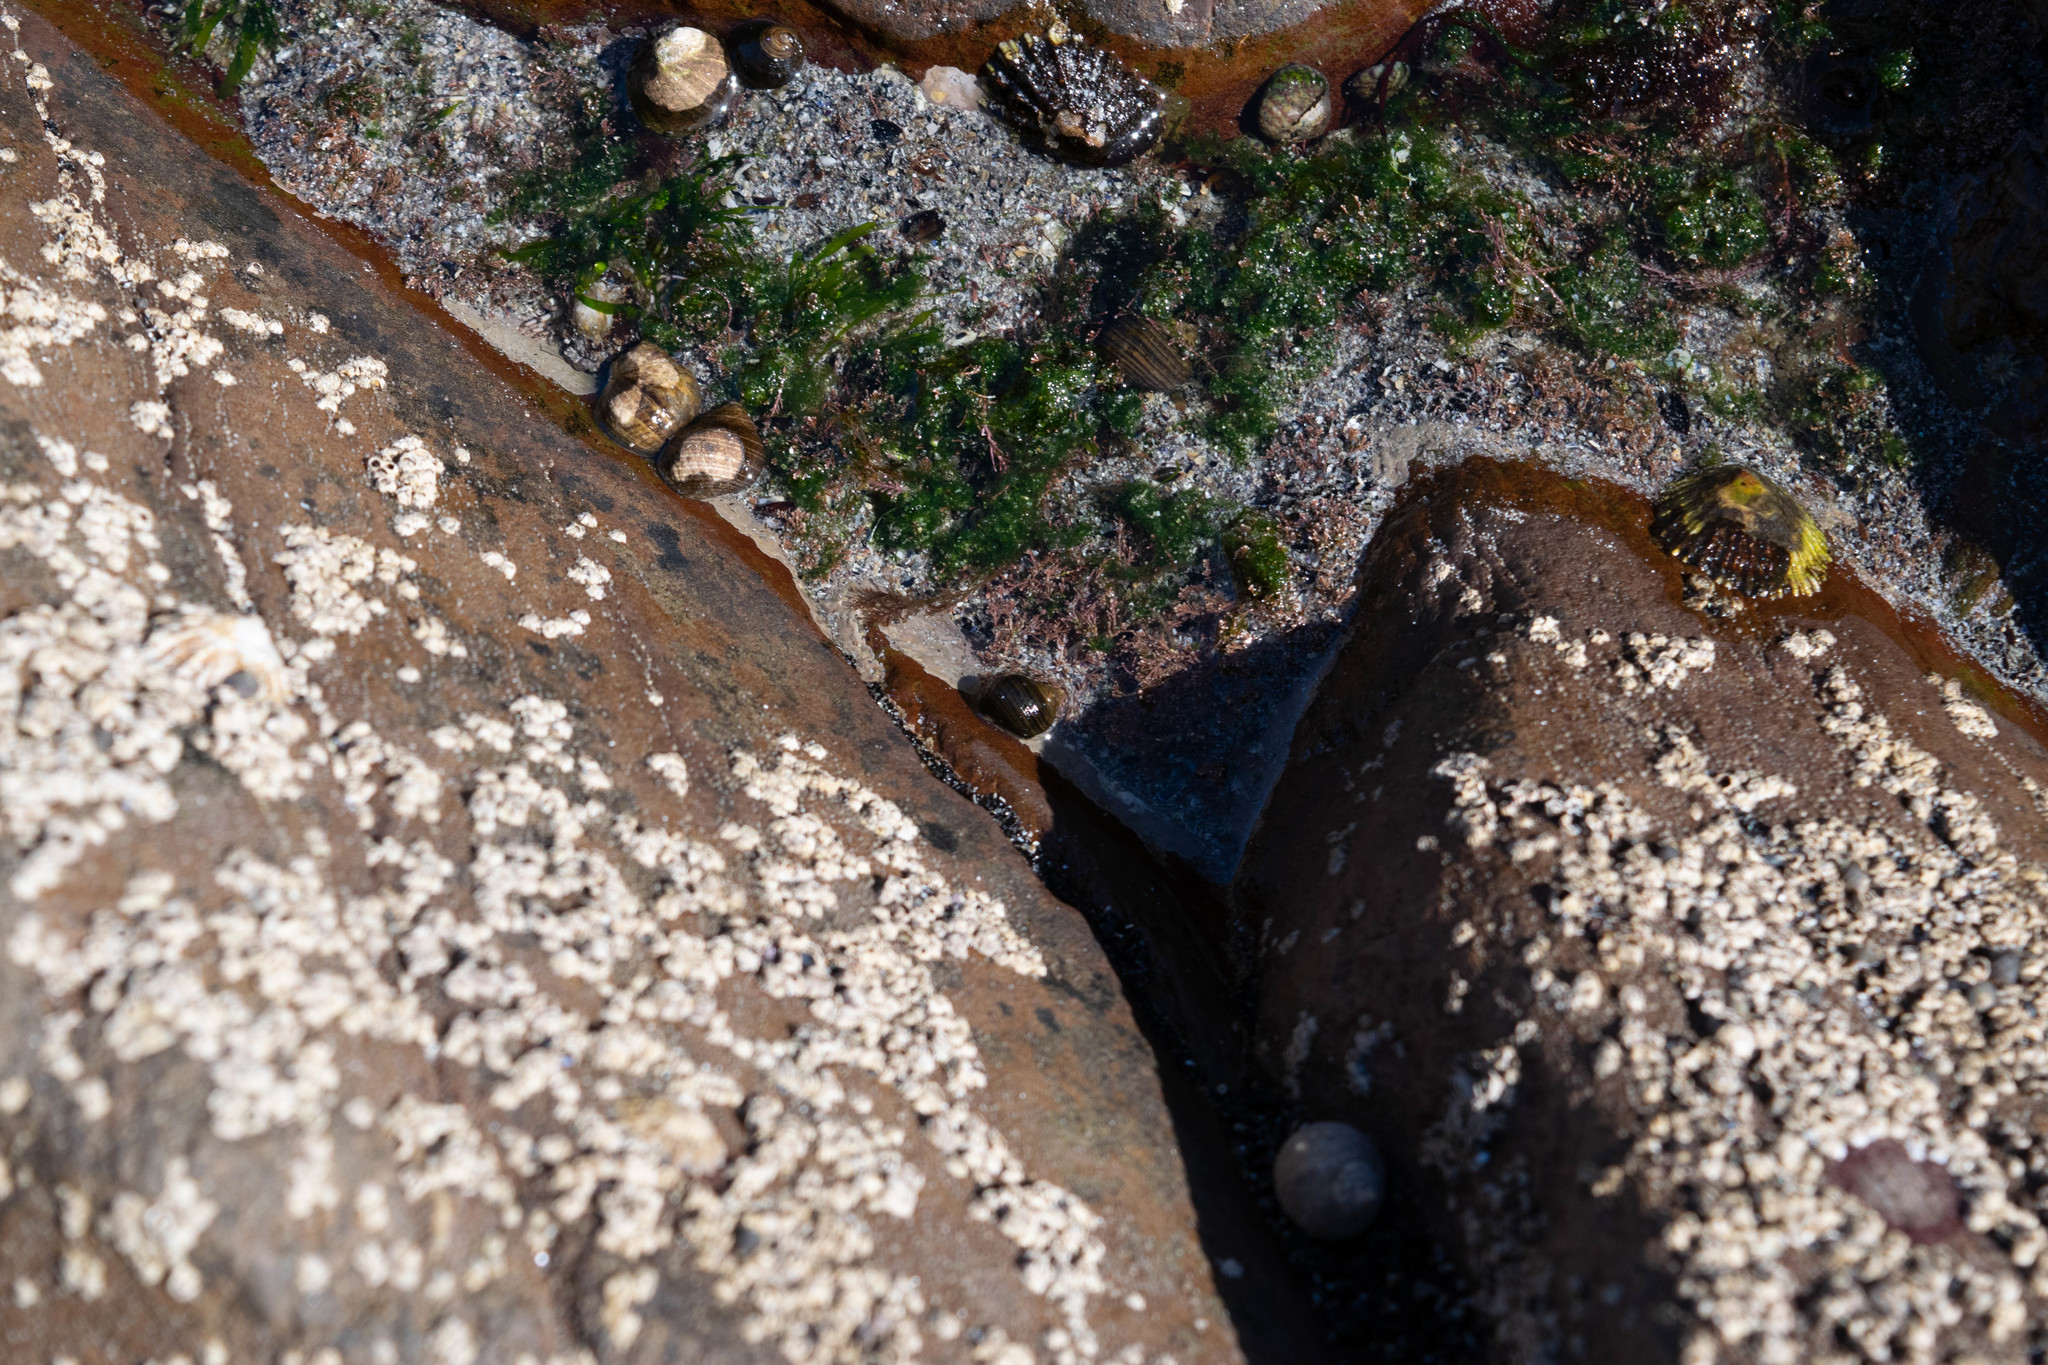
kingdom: Animalia
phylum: Mollusca
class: Gastropoda
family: Patellidae
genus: Patella
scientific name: Patella vulgata
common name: Common limpet
